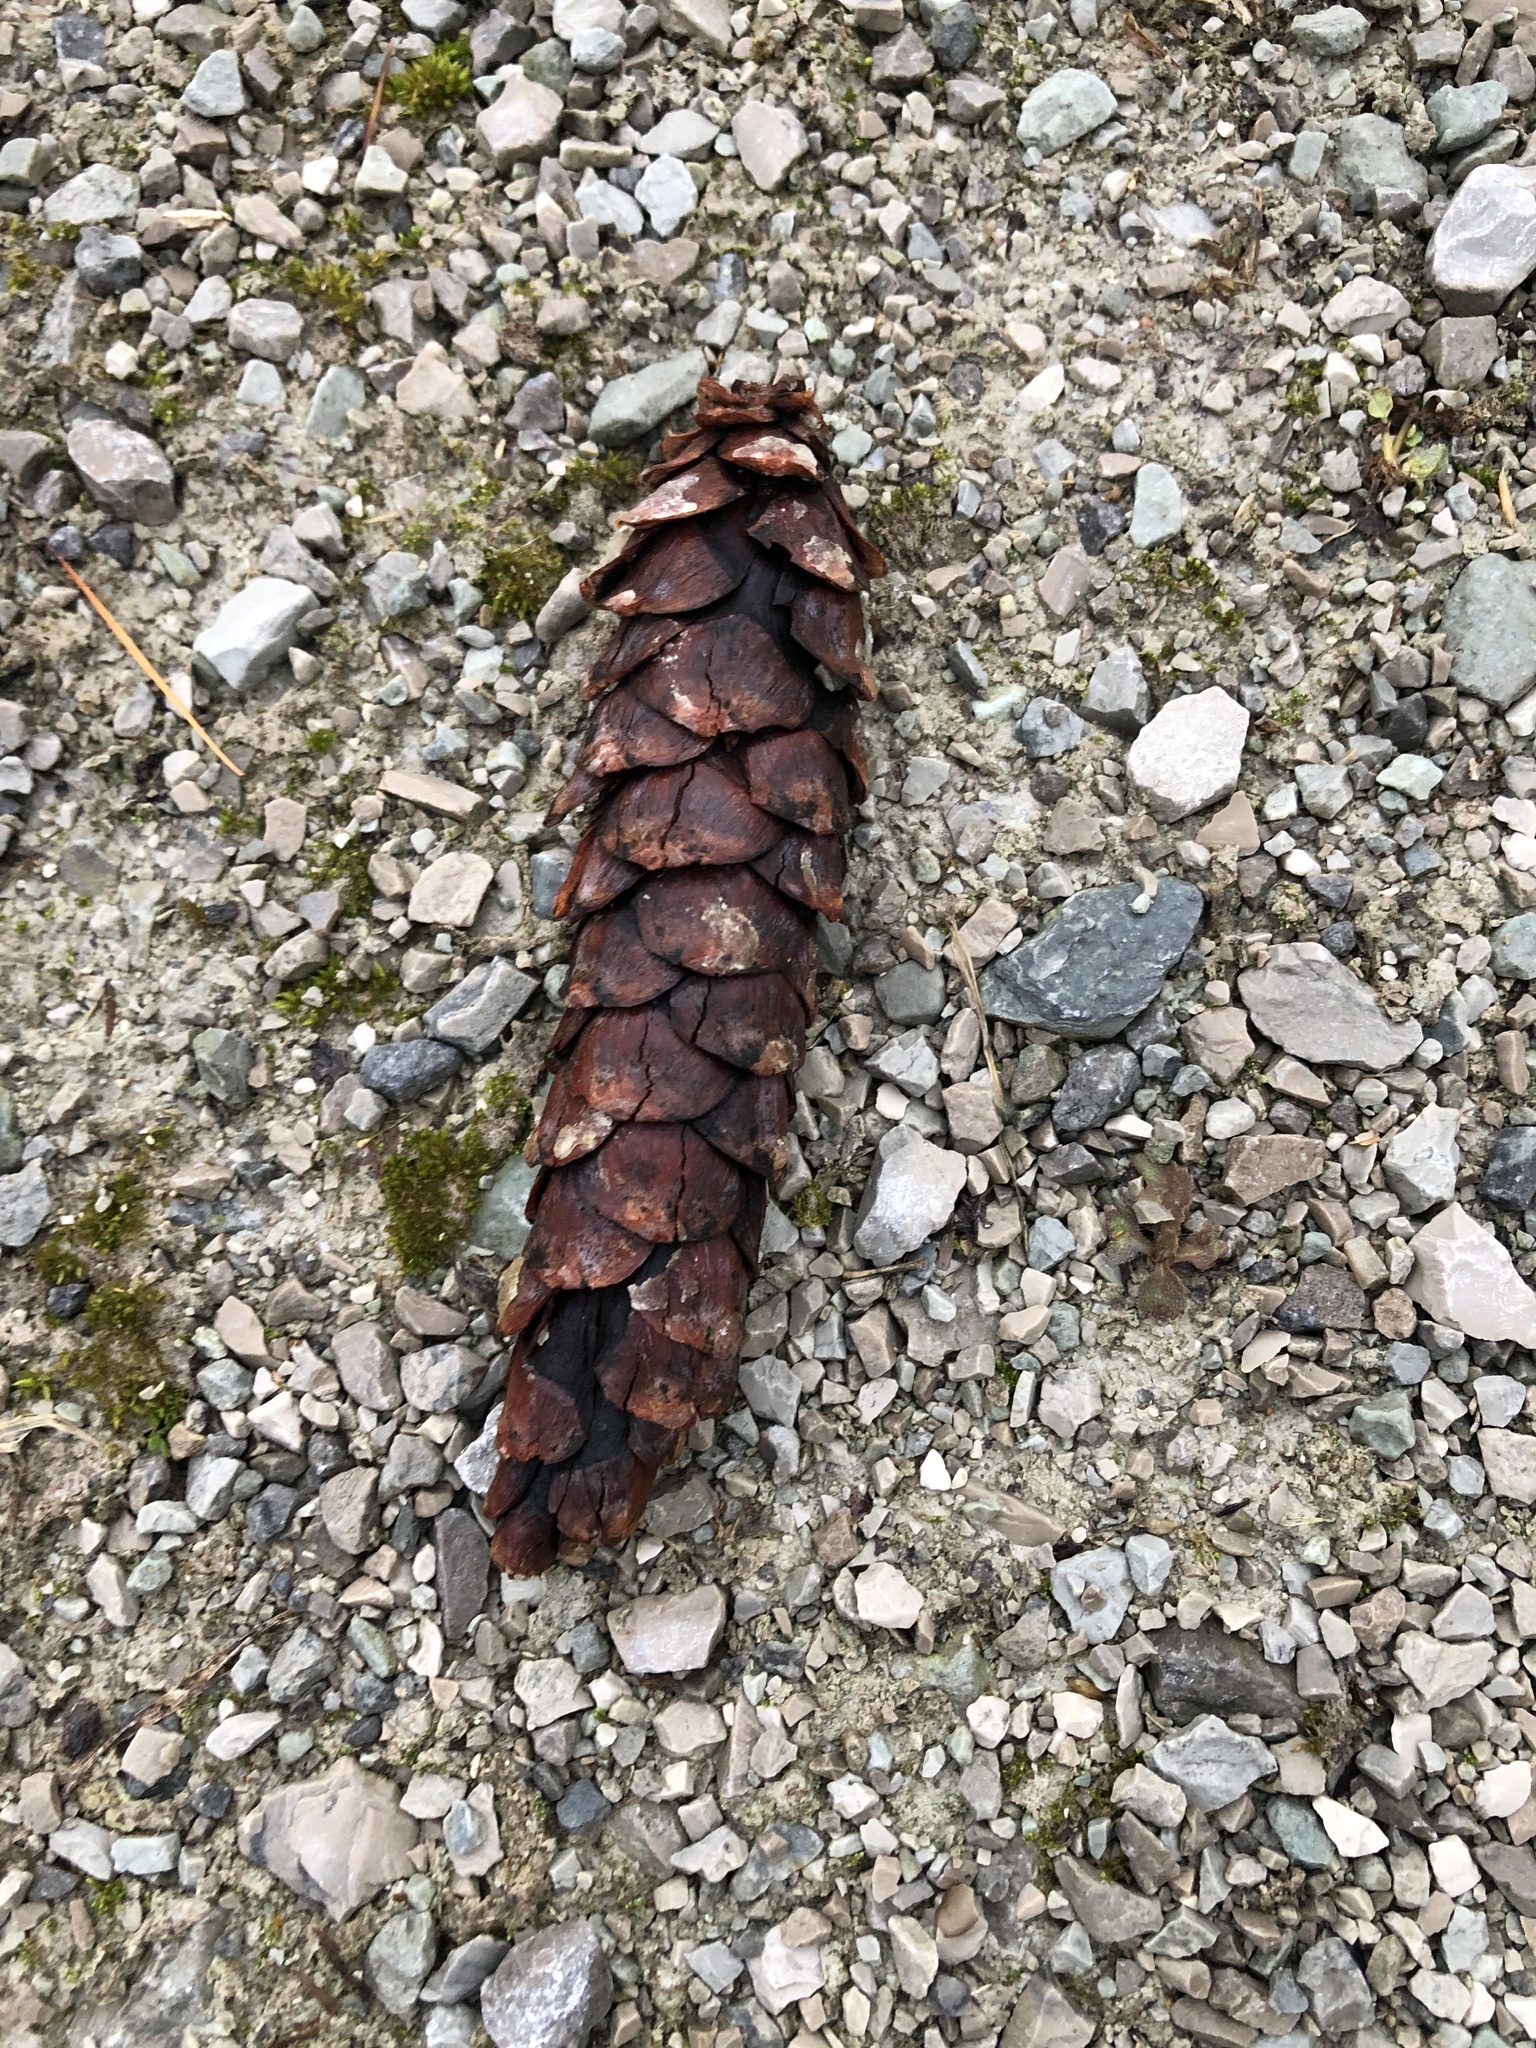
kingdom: Plantae
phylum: Tracheophyta
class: Pinopsida
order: Pinales
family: Pinaceae
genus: Pinus
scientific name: Pinus strobus
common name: Weymouth pine
